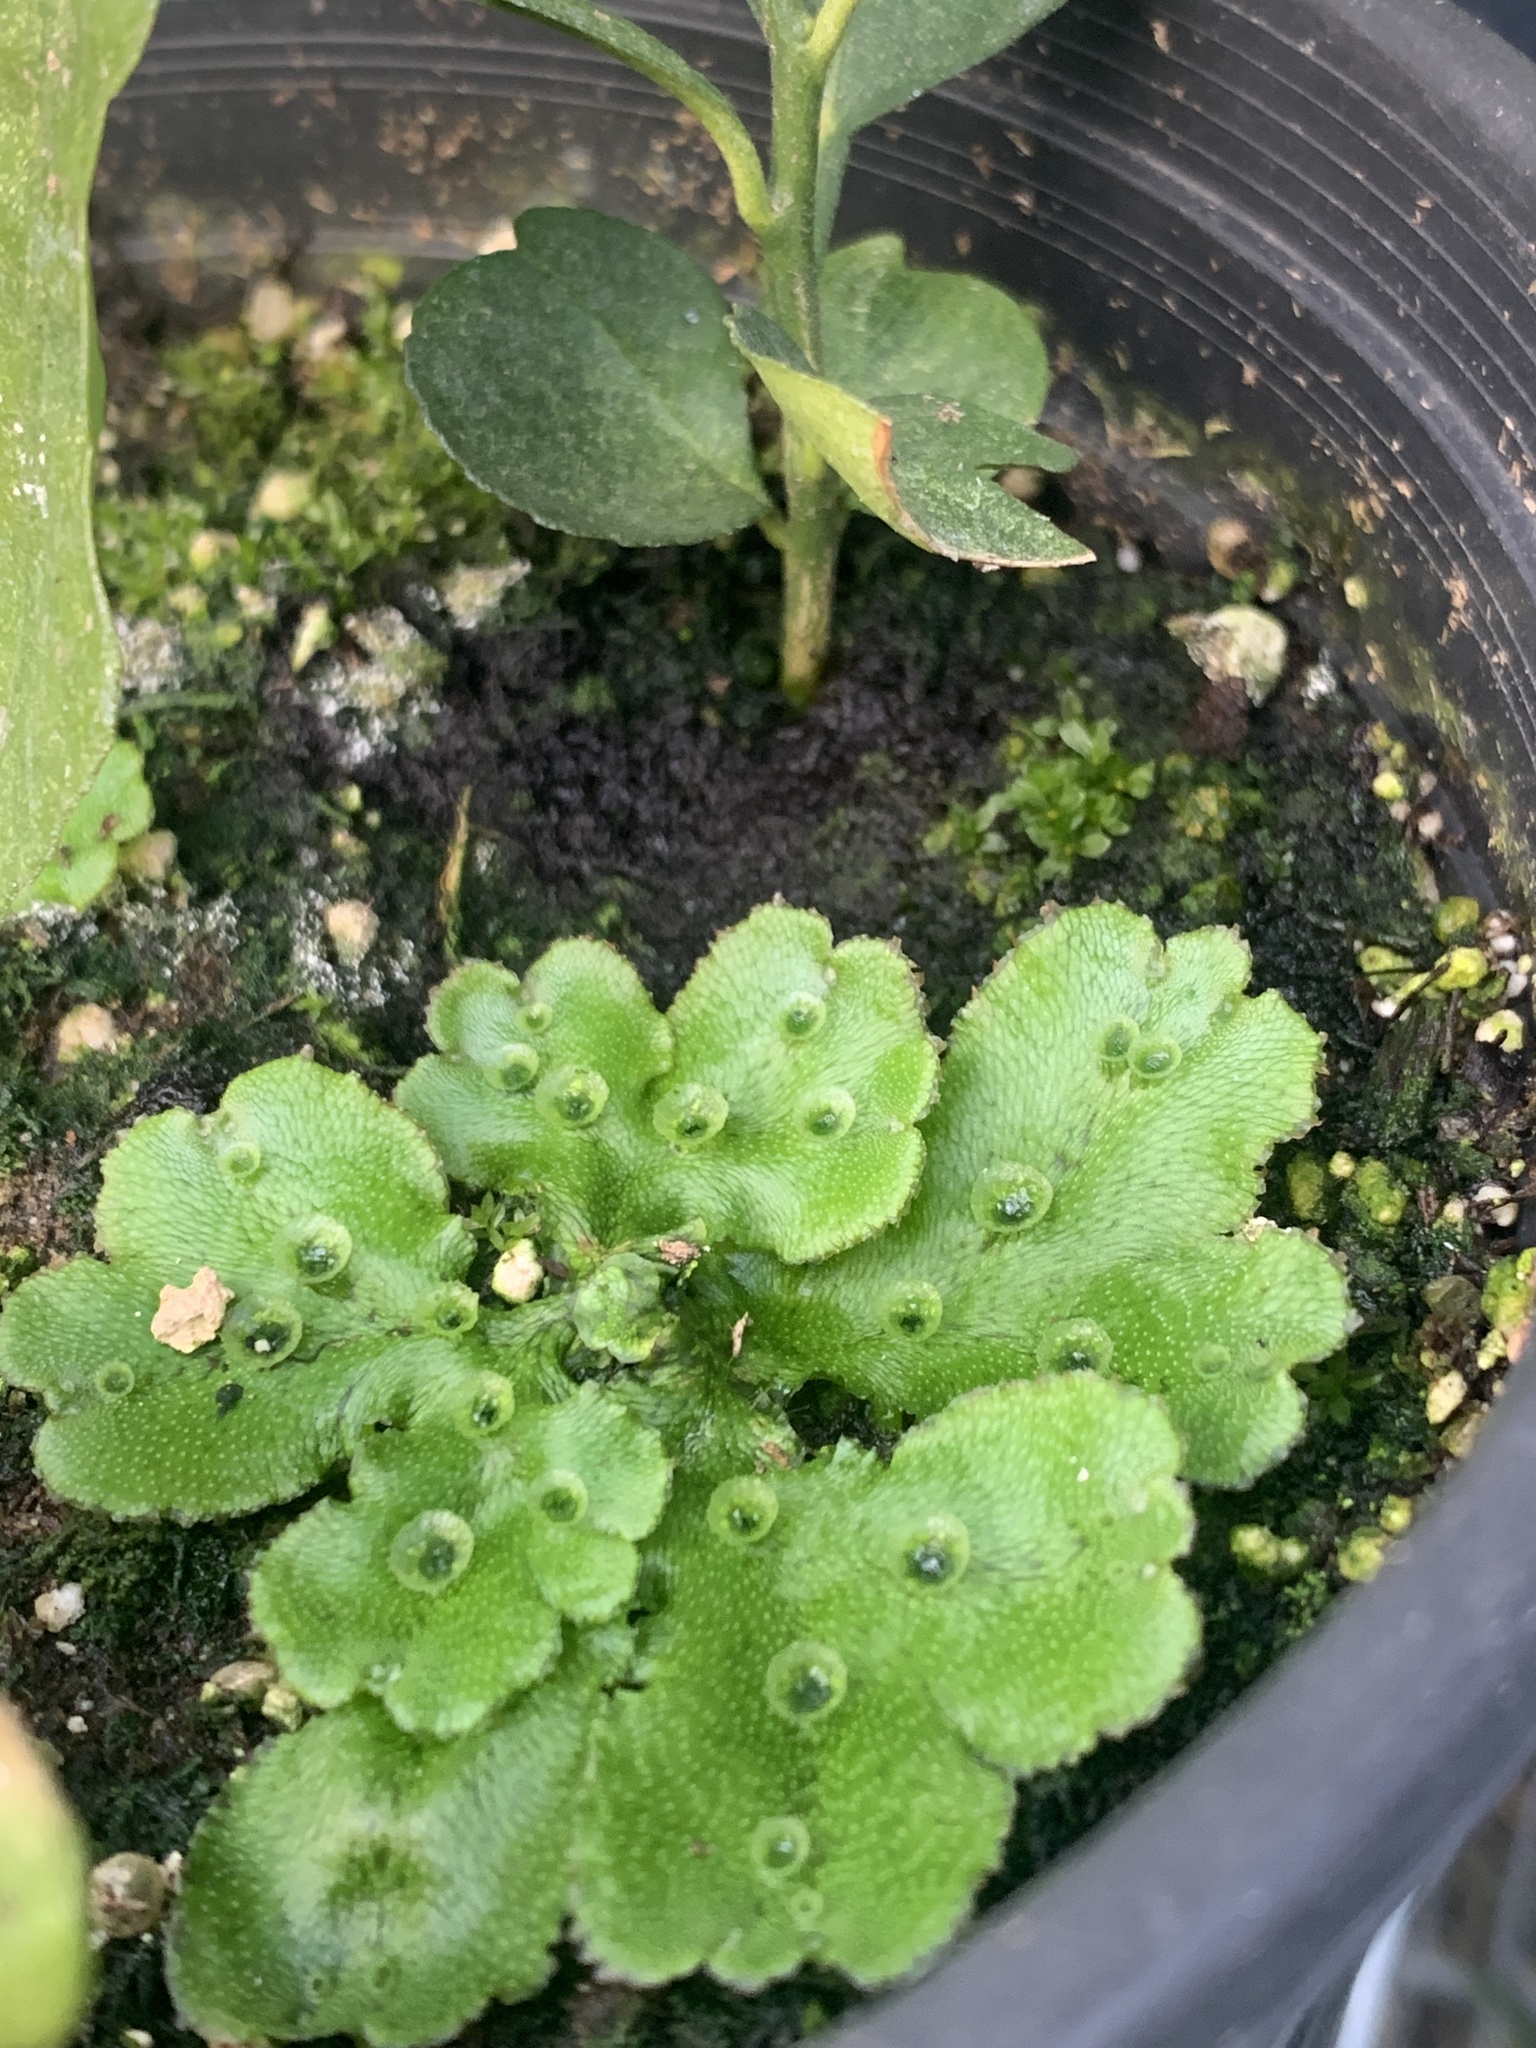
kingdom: Plantae
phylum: Marchantiophyta
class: Marchantiopsida
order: Marchantiales
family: Marchantiaceae
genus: Marchantia
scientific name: Marchantia polymorpha
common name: Common liverwort
